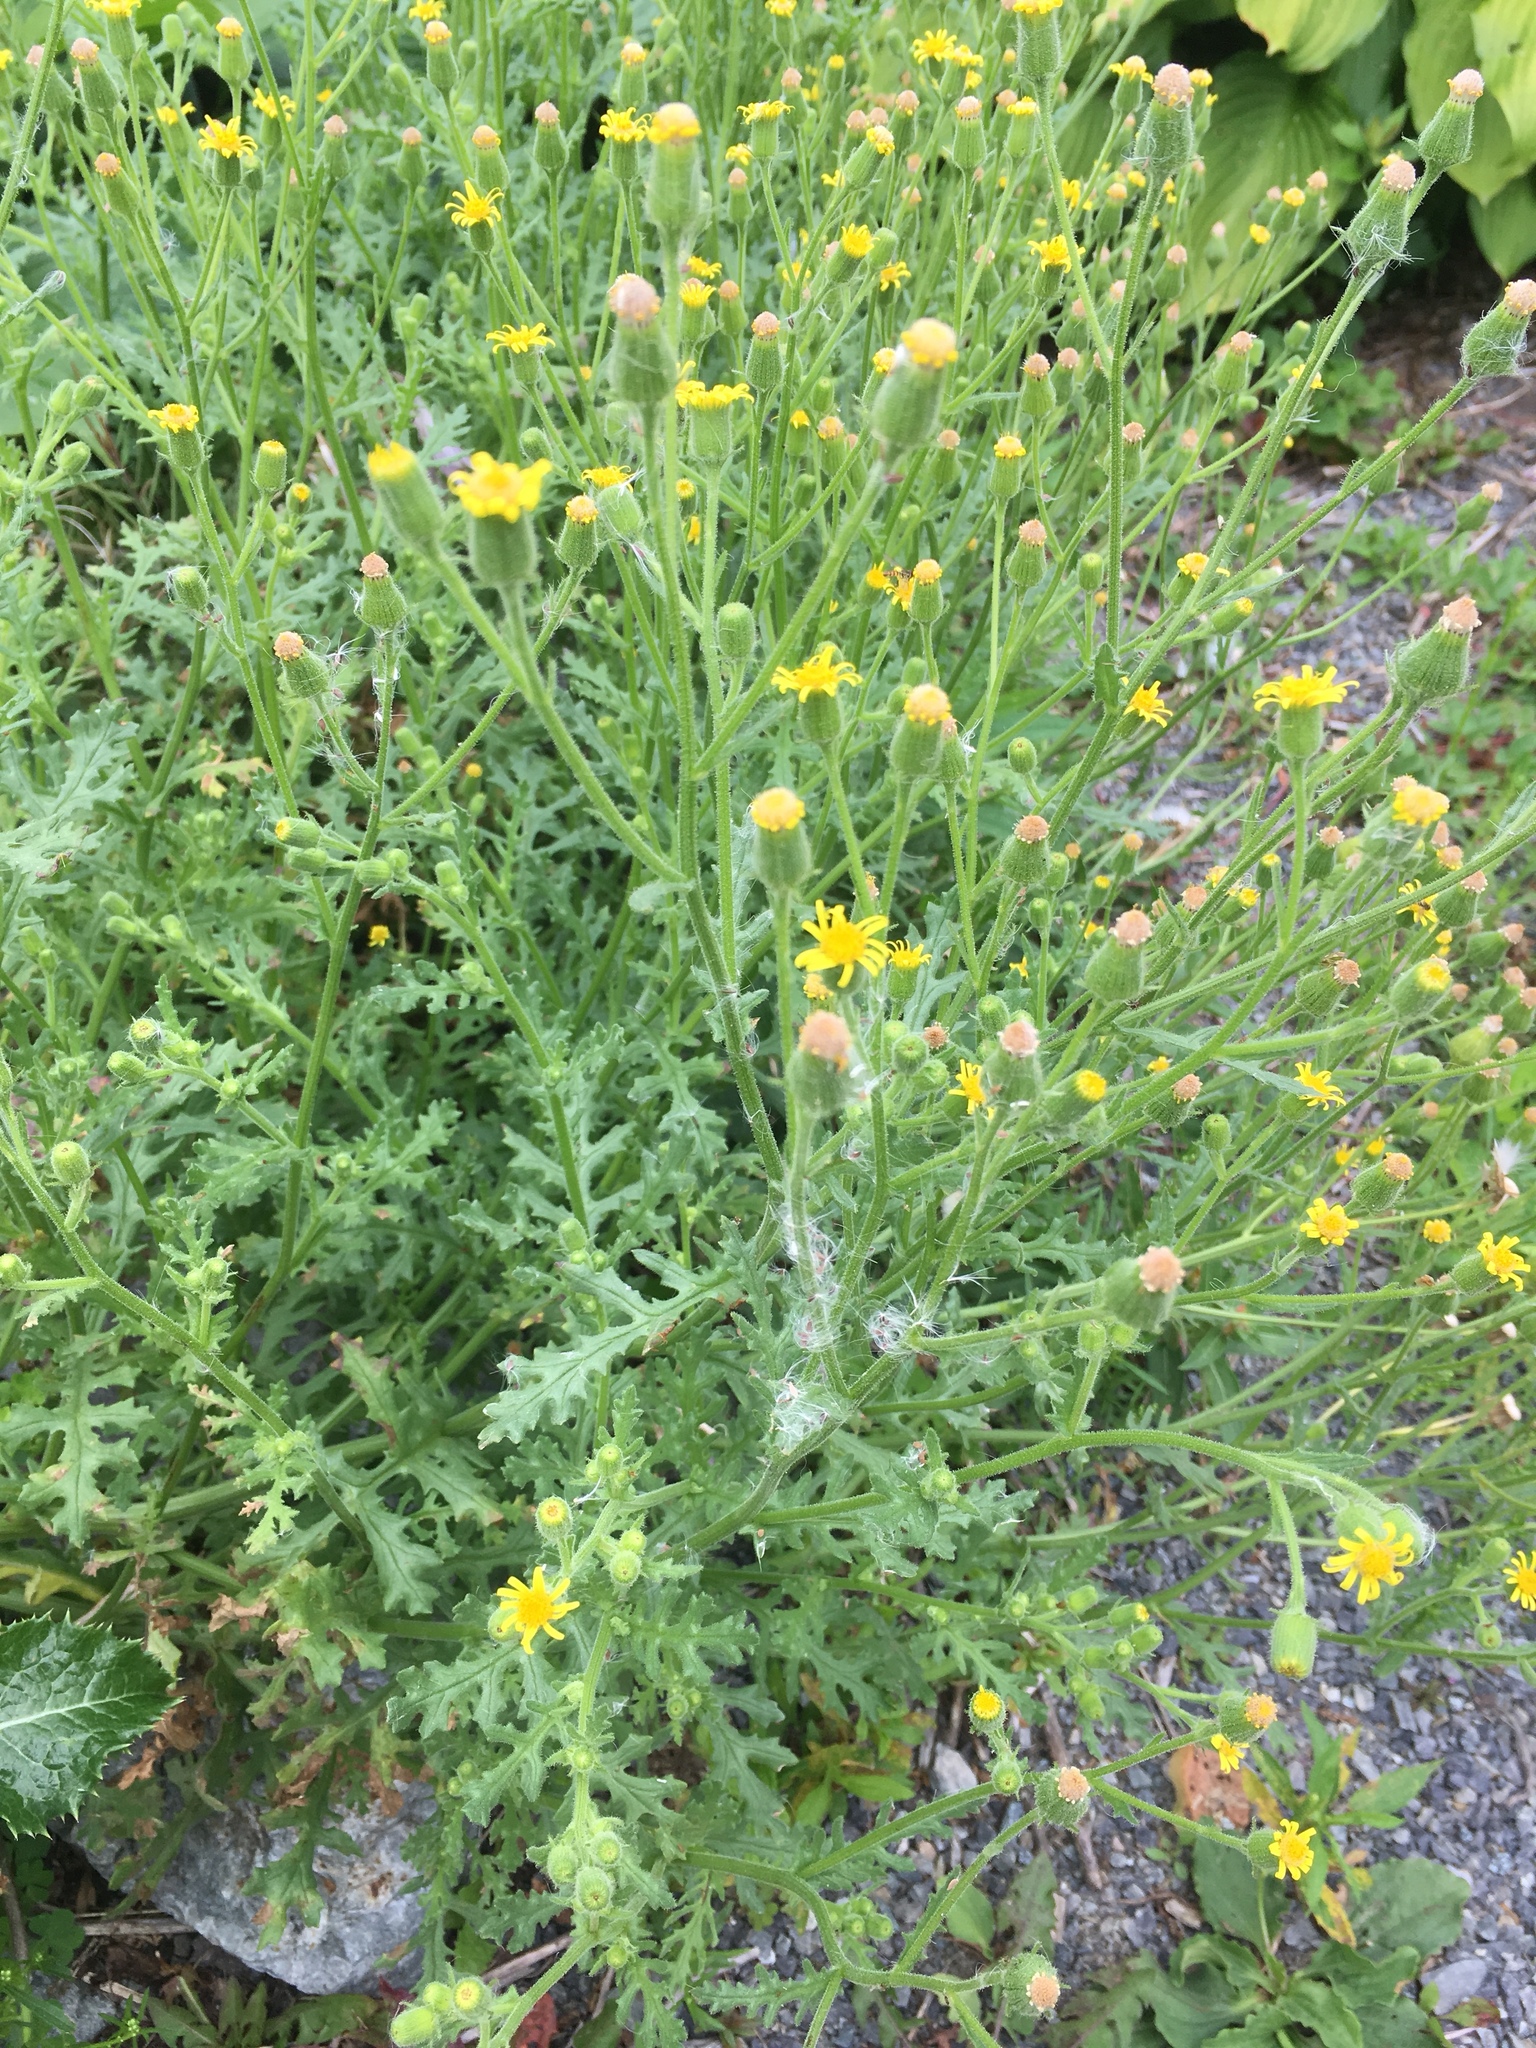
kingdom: Plantae
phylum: Tracheophyta
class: Magnoliopsida
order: Asterales
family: Asteraceae
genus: Senecio
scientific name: Senecio viscosus
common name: Sticky groundsel
